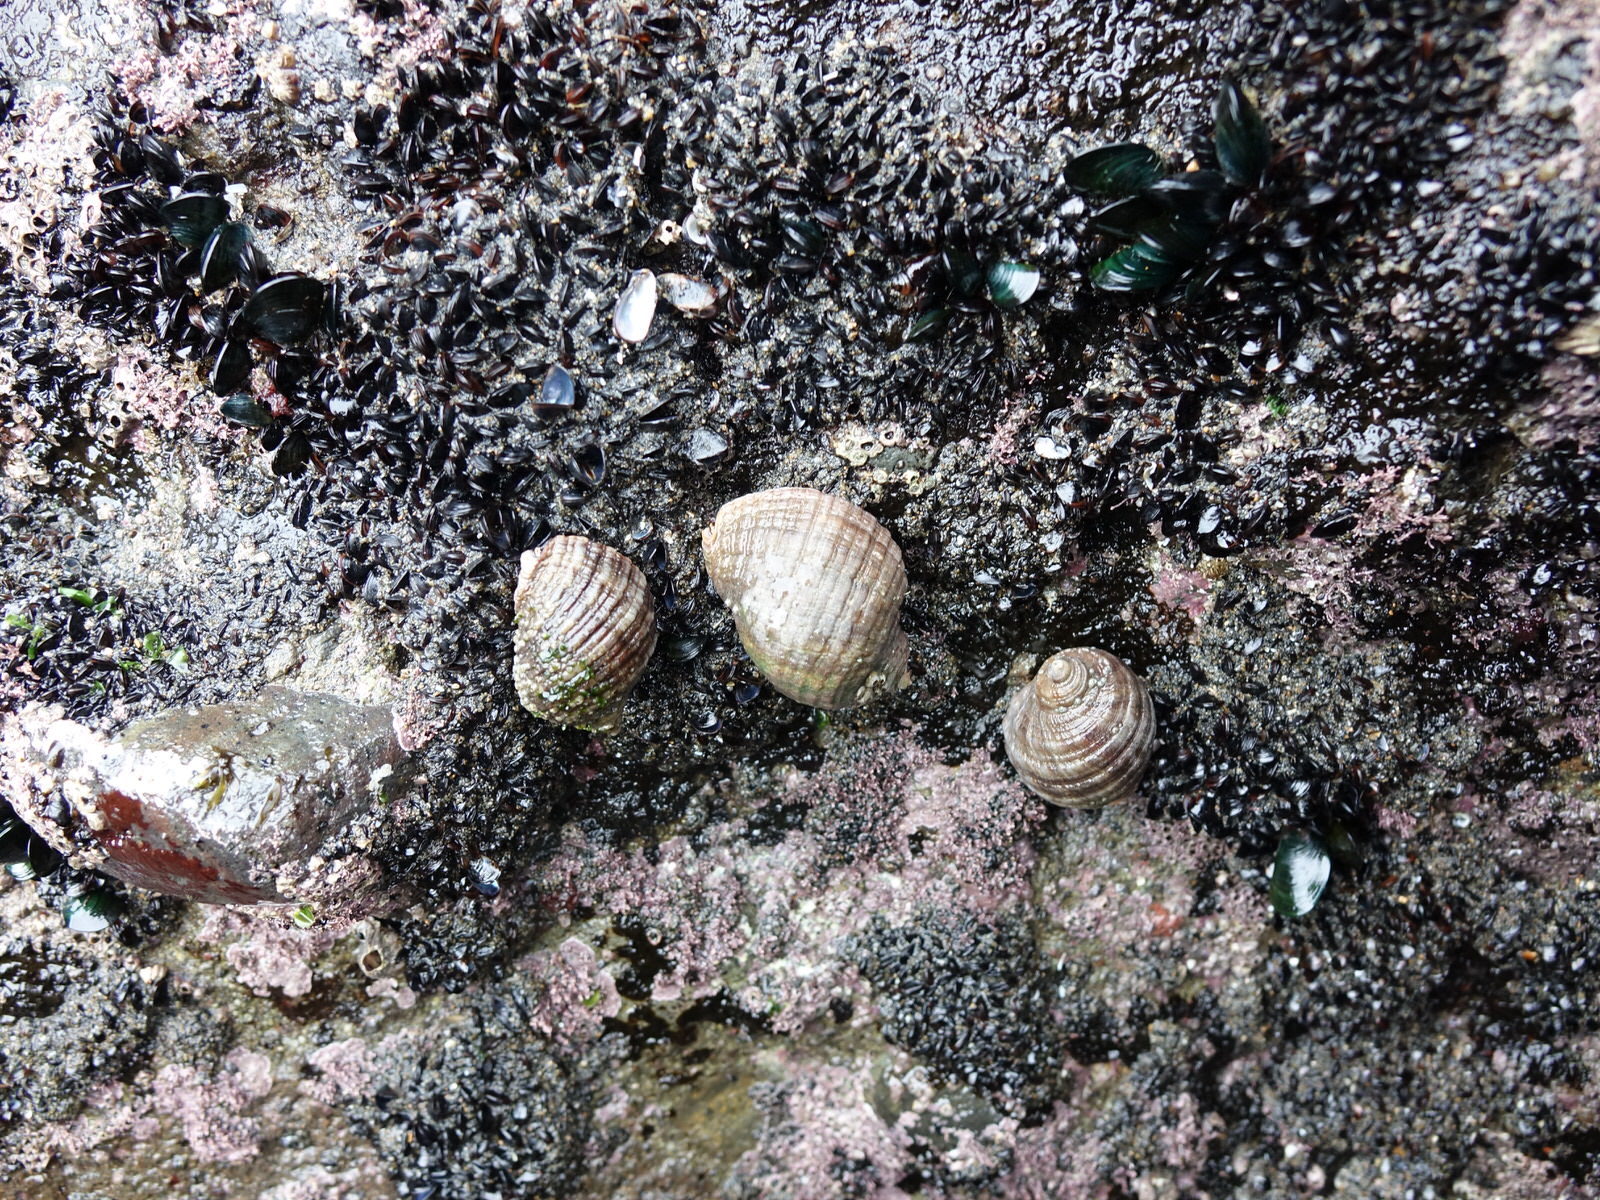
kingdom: Animalia
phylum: Mollusca
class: Gastropoda
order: Neogastropoda
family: Muricidae
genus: Dicathais
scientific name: Dicathais orbita
